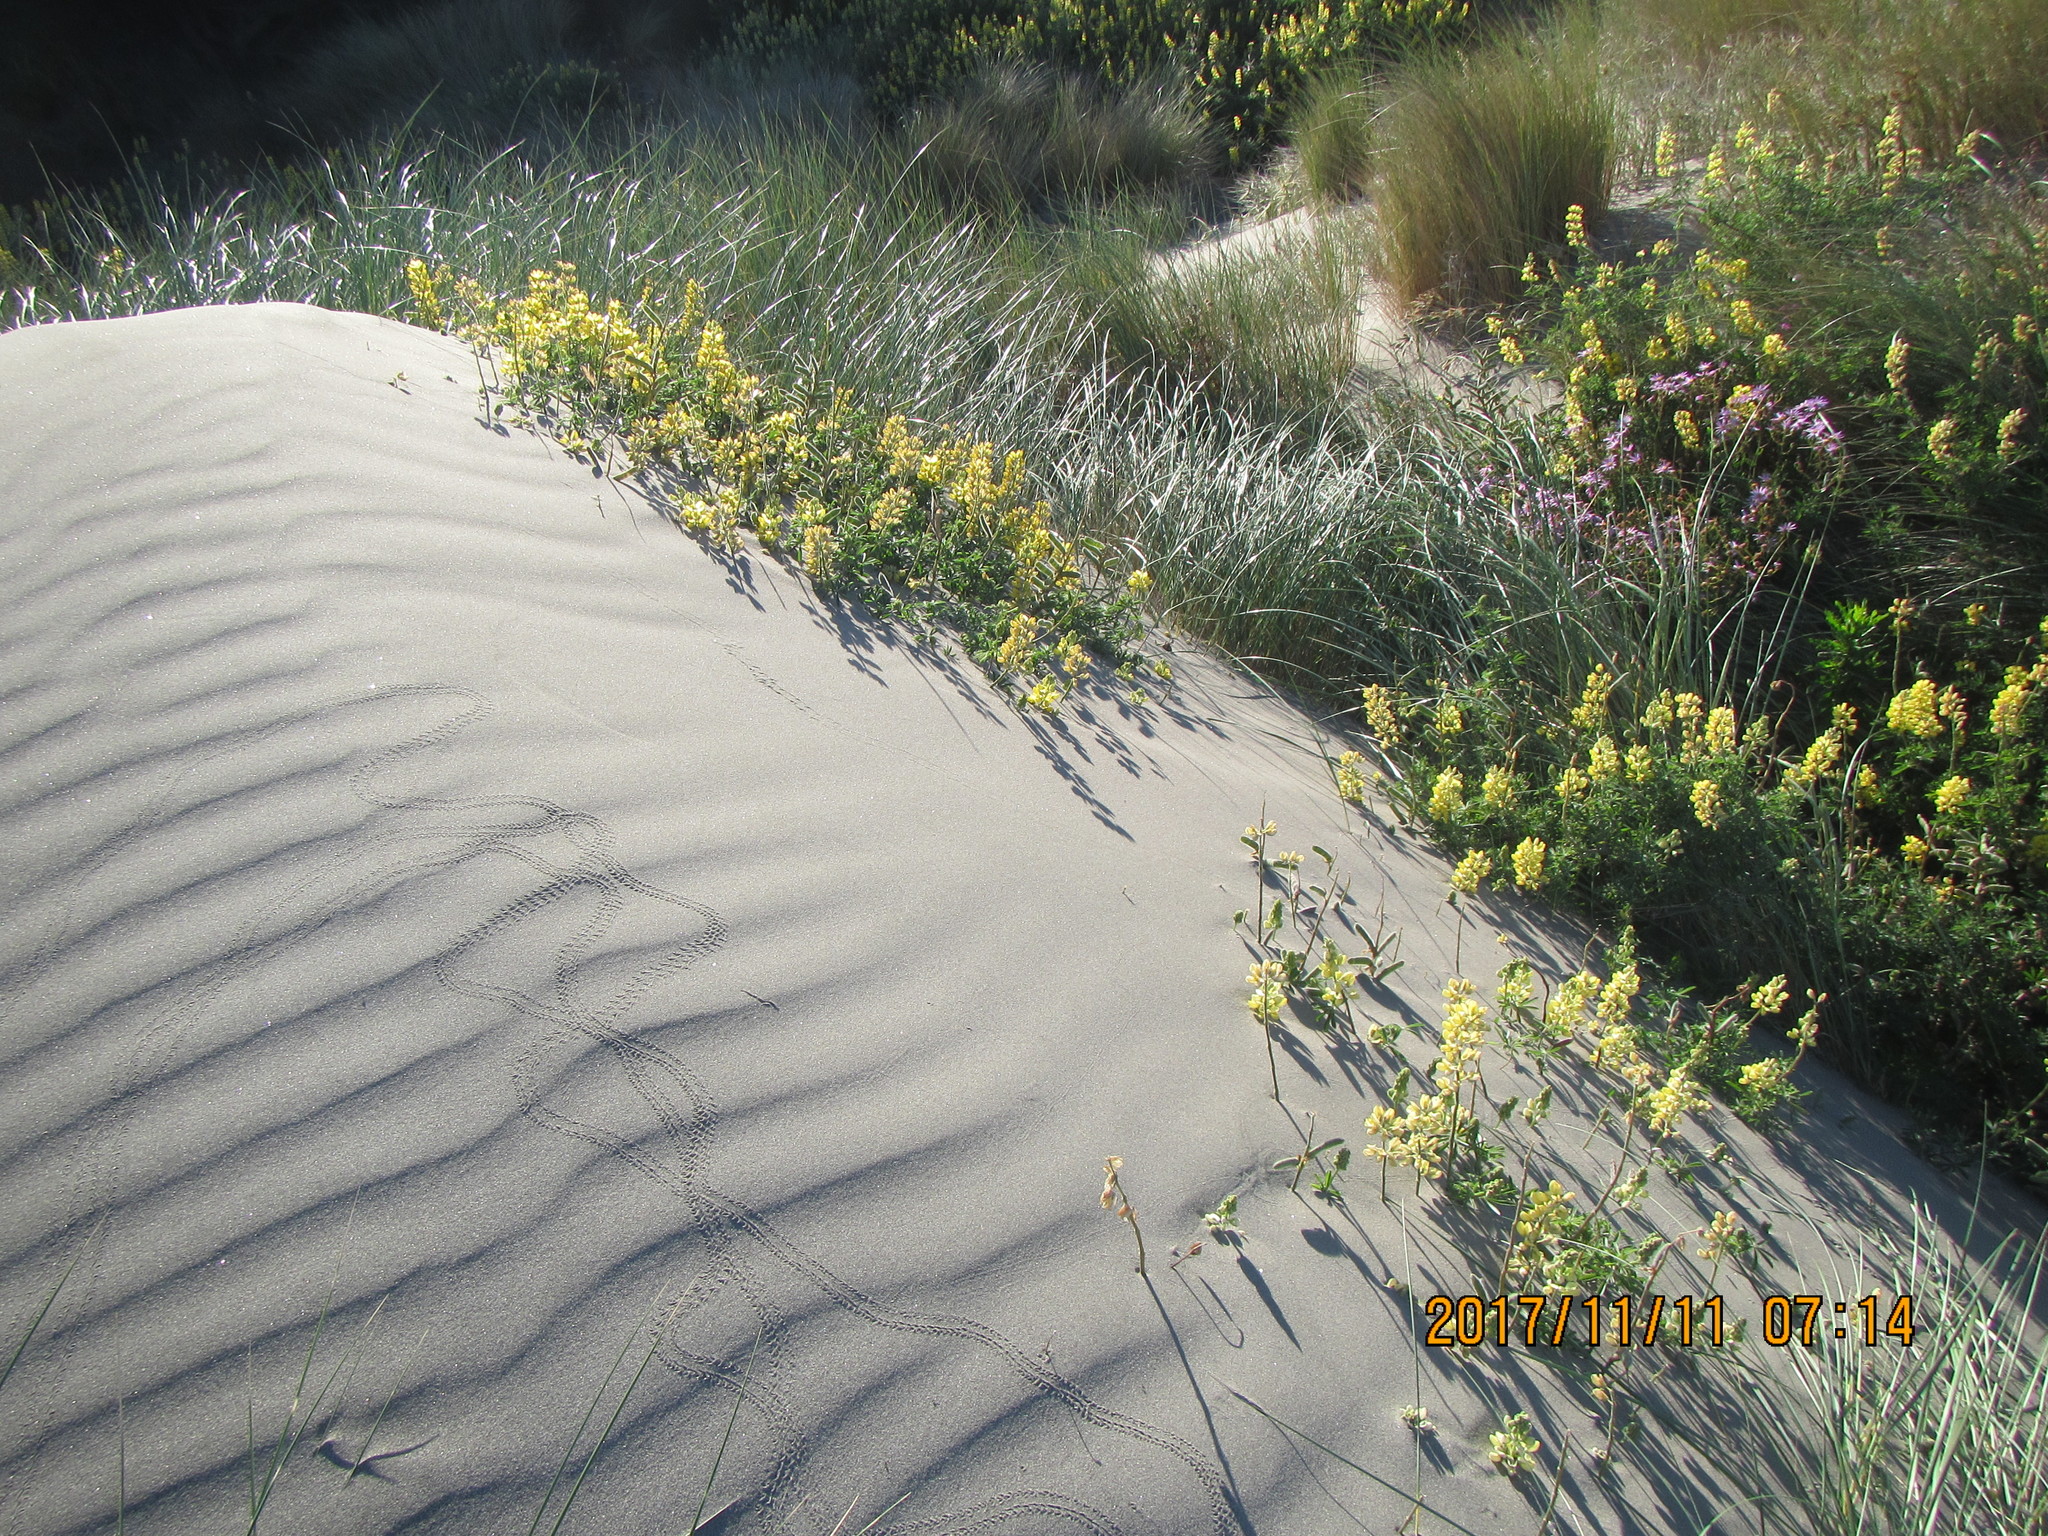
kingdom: Plantae
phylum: Tracheophyta
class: Magnoliopsida
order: Fabales
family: Fabaceae
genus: Lupinus
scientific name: Lupinus arboreus
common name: Yellow bush lupine
